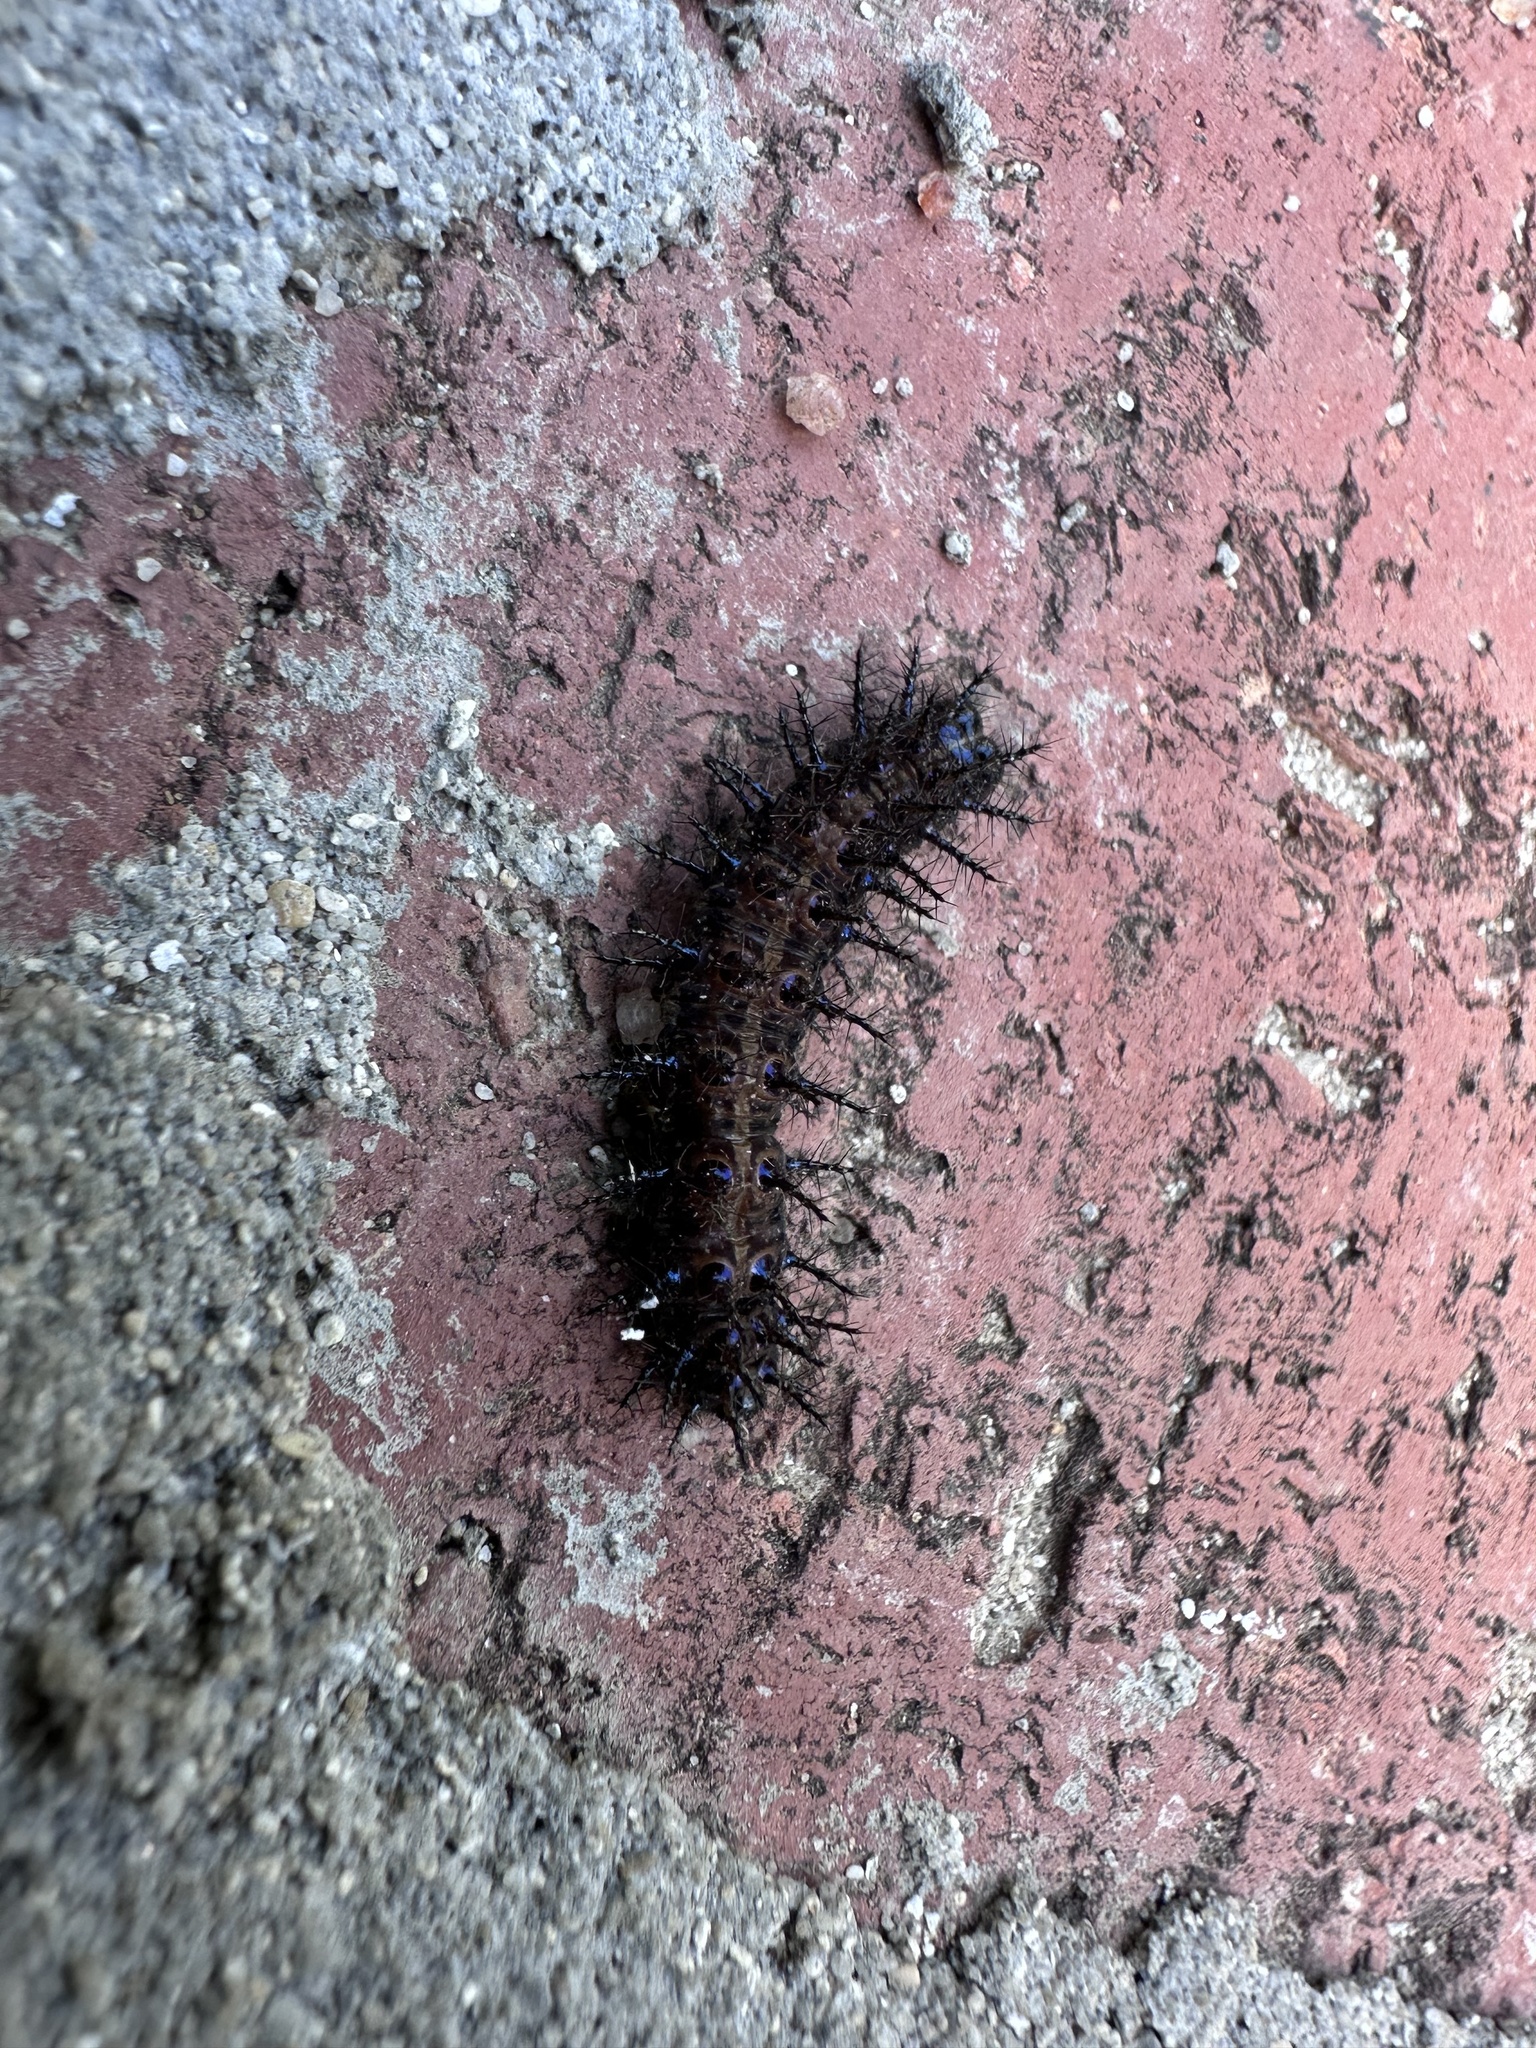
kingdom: Animalia
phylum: Arthropoda
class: Insecta
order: Lepidoptera
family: Nymphalidae
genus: Acraea
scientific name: Acraea horta
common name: Garden acraea
